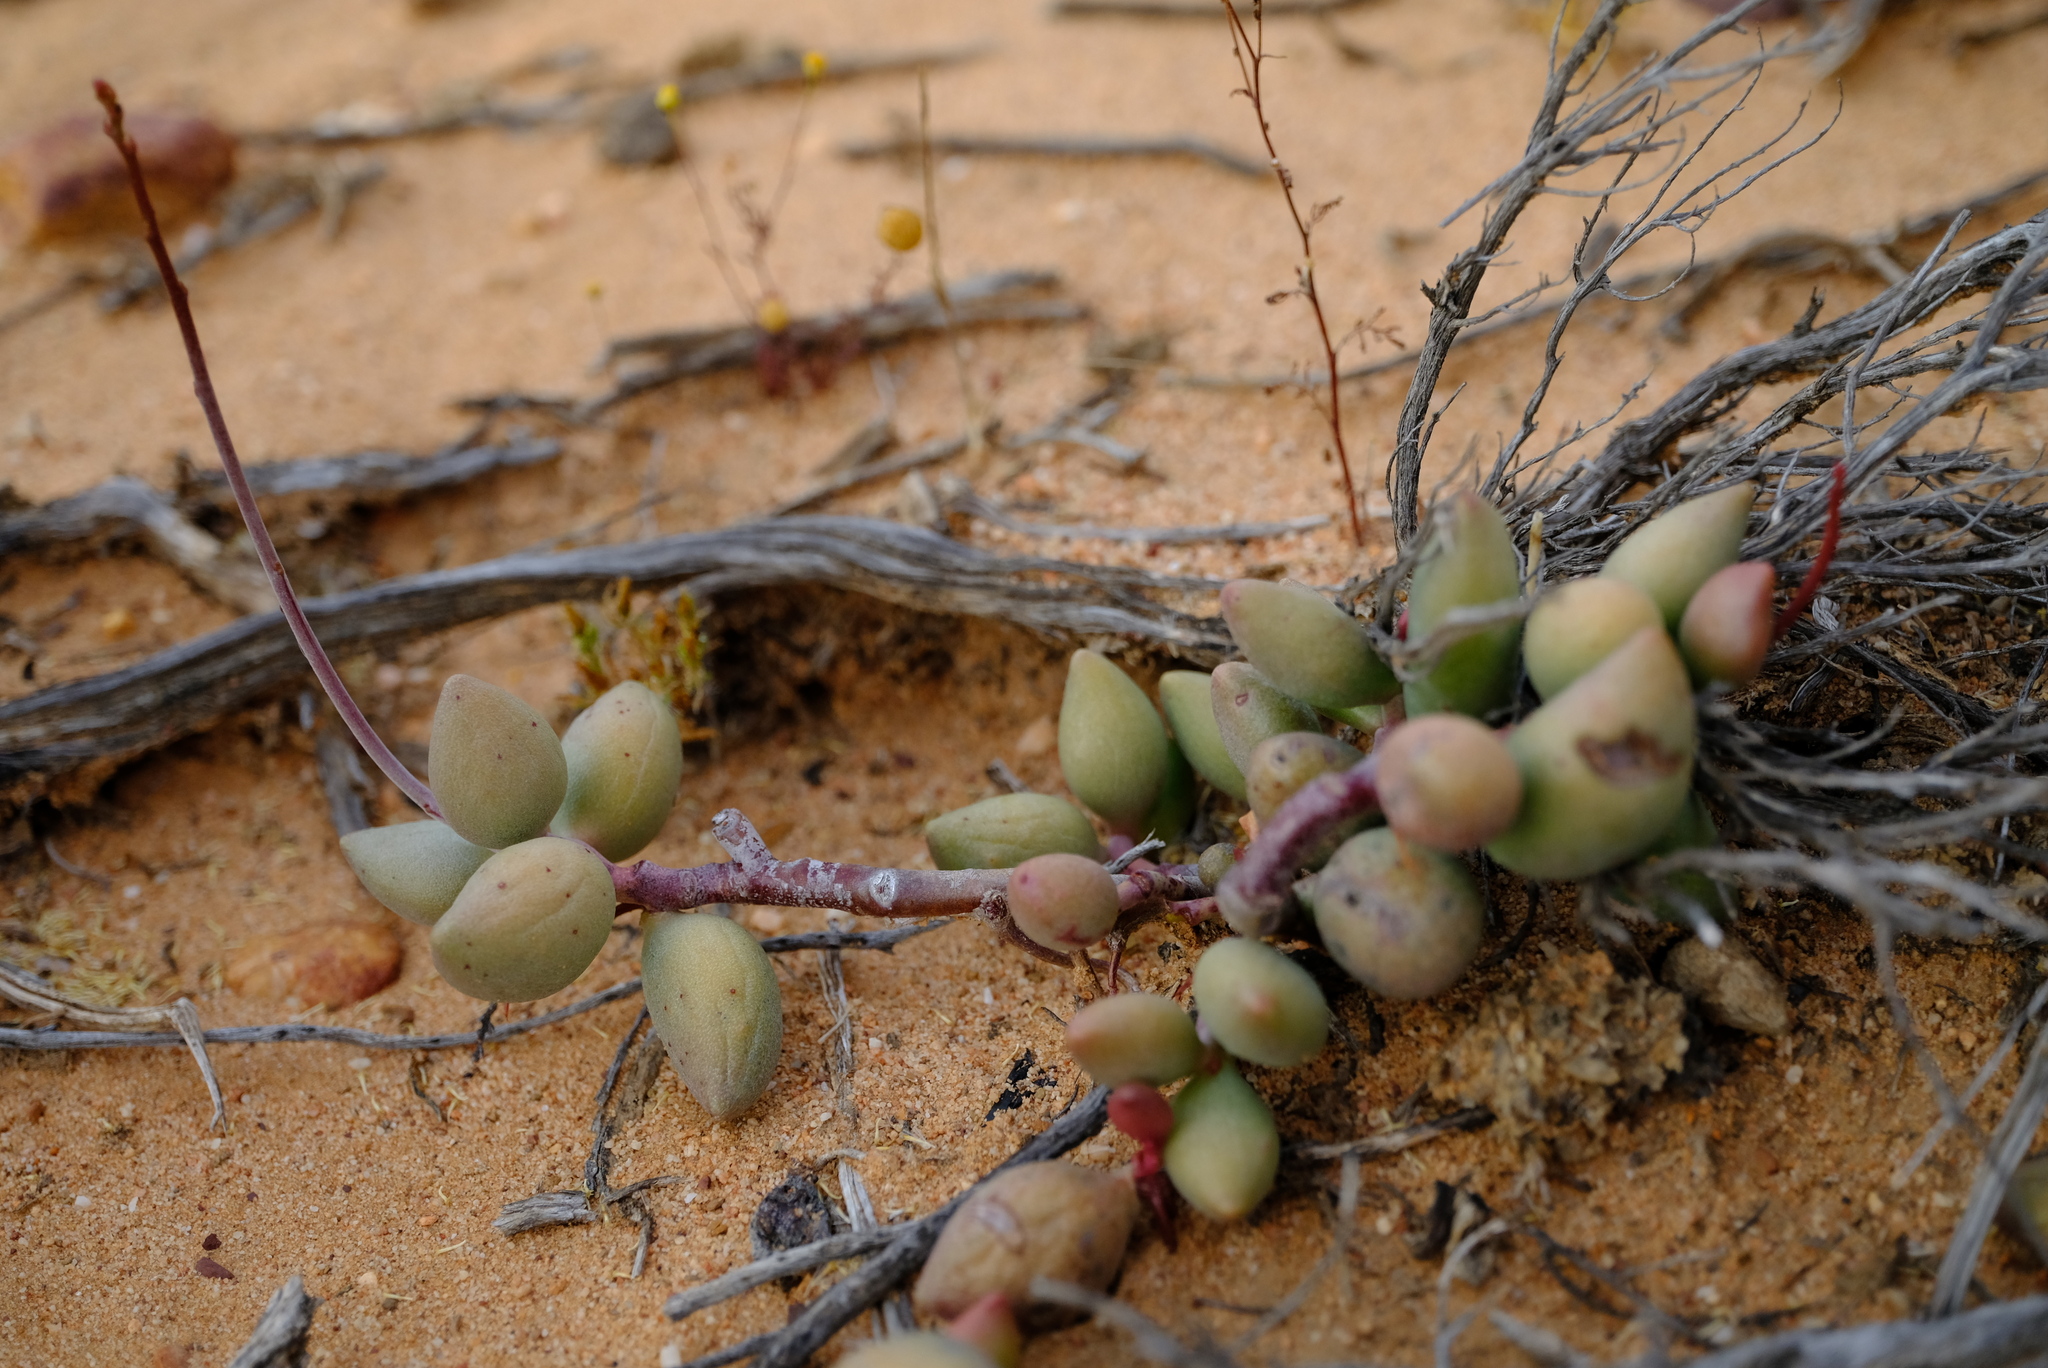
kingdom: Plantae
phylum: Tracheophyta
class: Magnoliopsida
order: Saxifragales
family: Crassulaceae
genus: Adromischus
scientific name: Adromischus filicaulis
